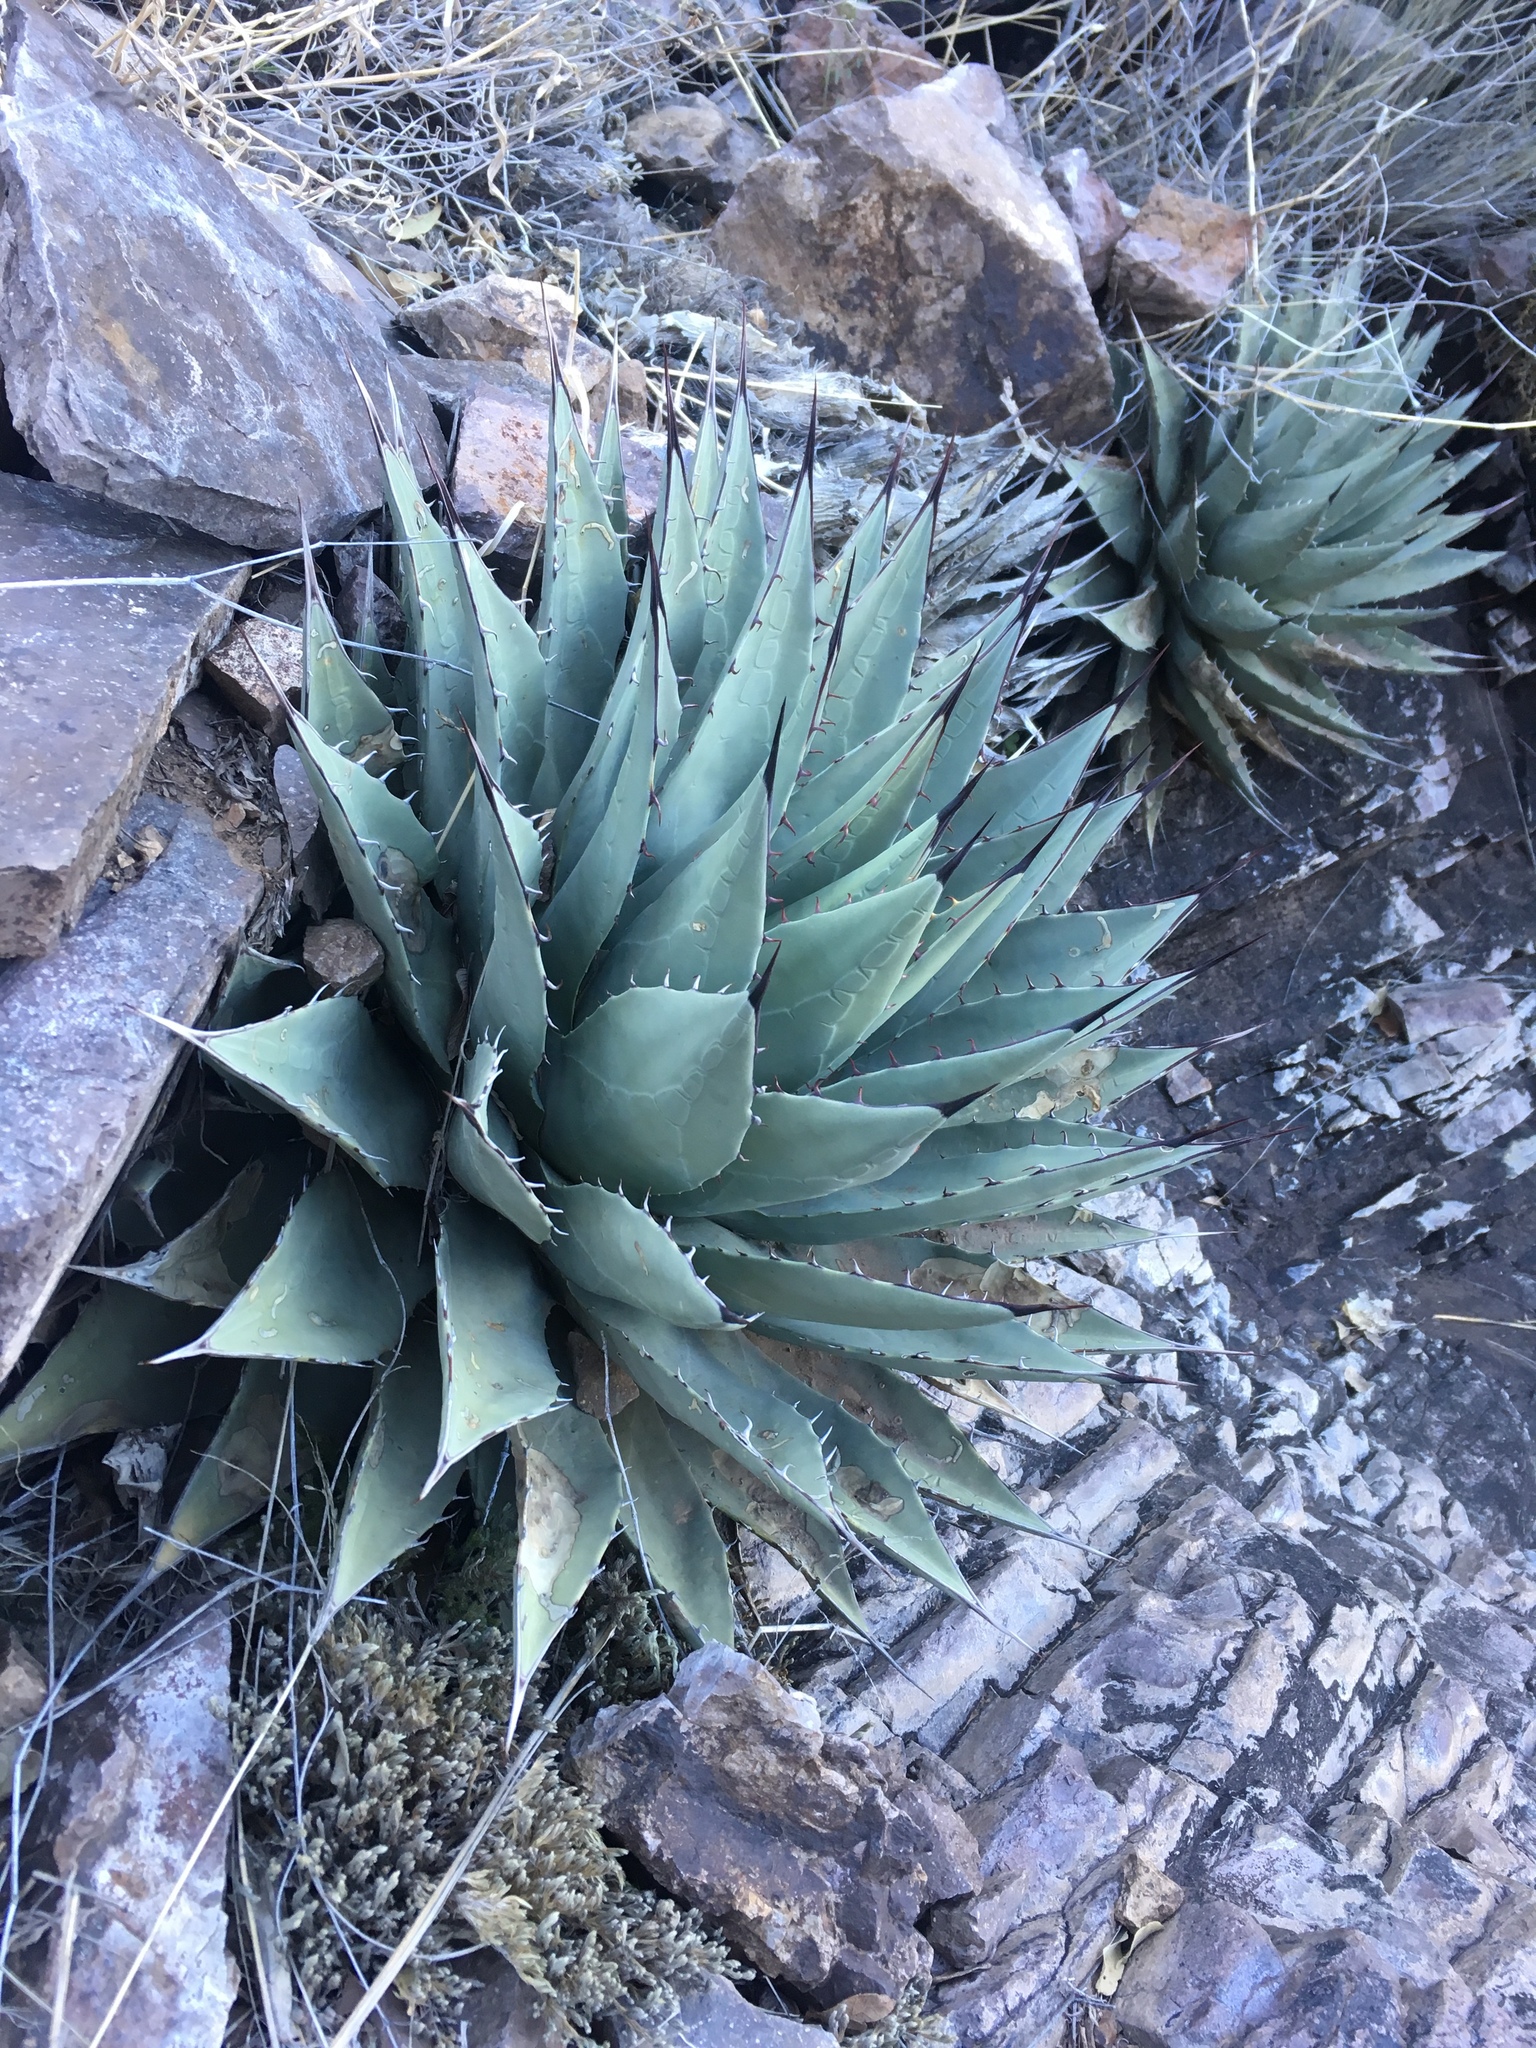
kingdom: Plantae
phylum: Tracheophyta
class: Liliopsida
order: Asparagales
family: Asparagaceae
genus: Agave
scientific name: Agave parryi
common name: Parry's agave
